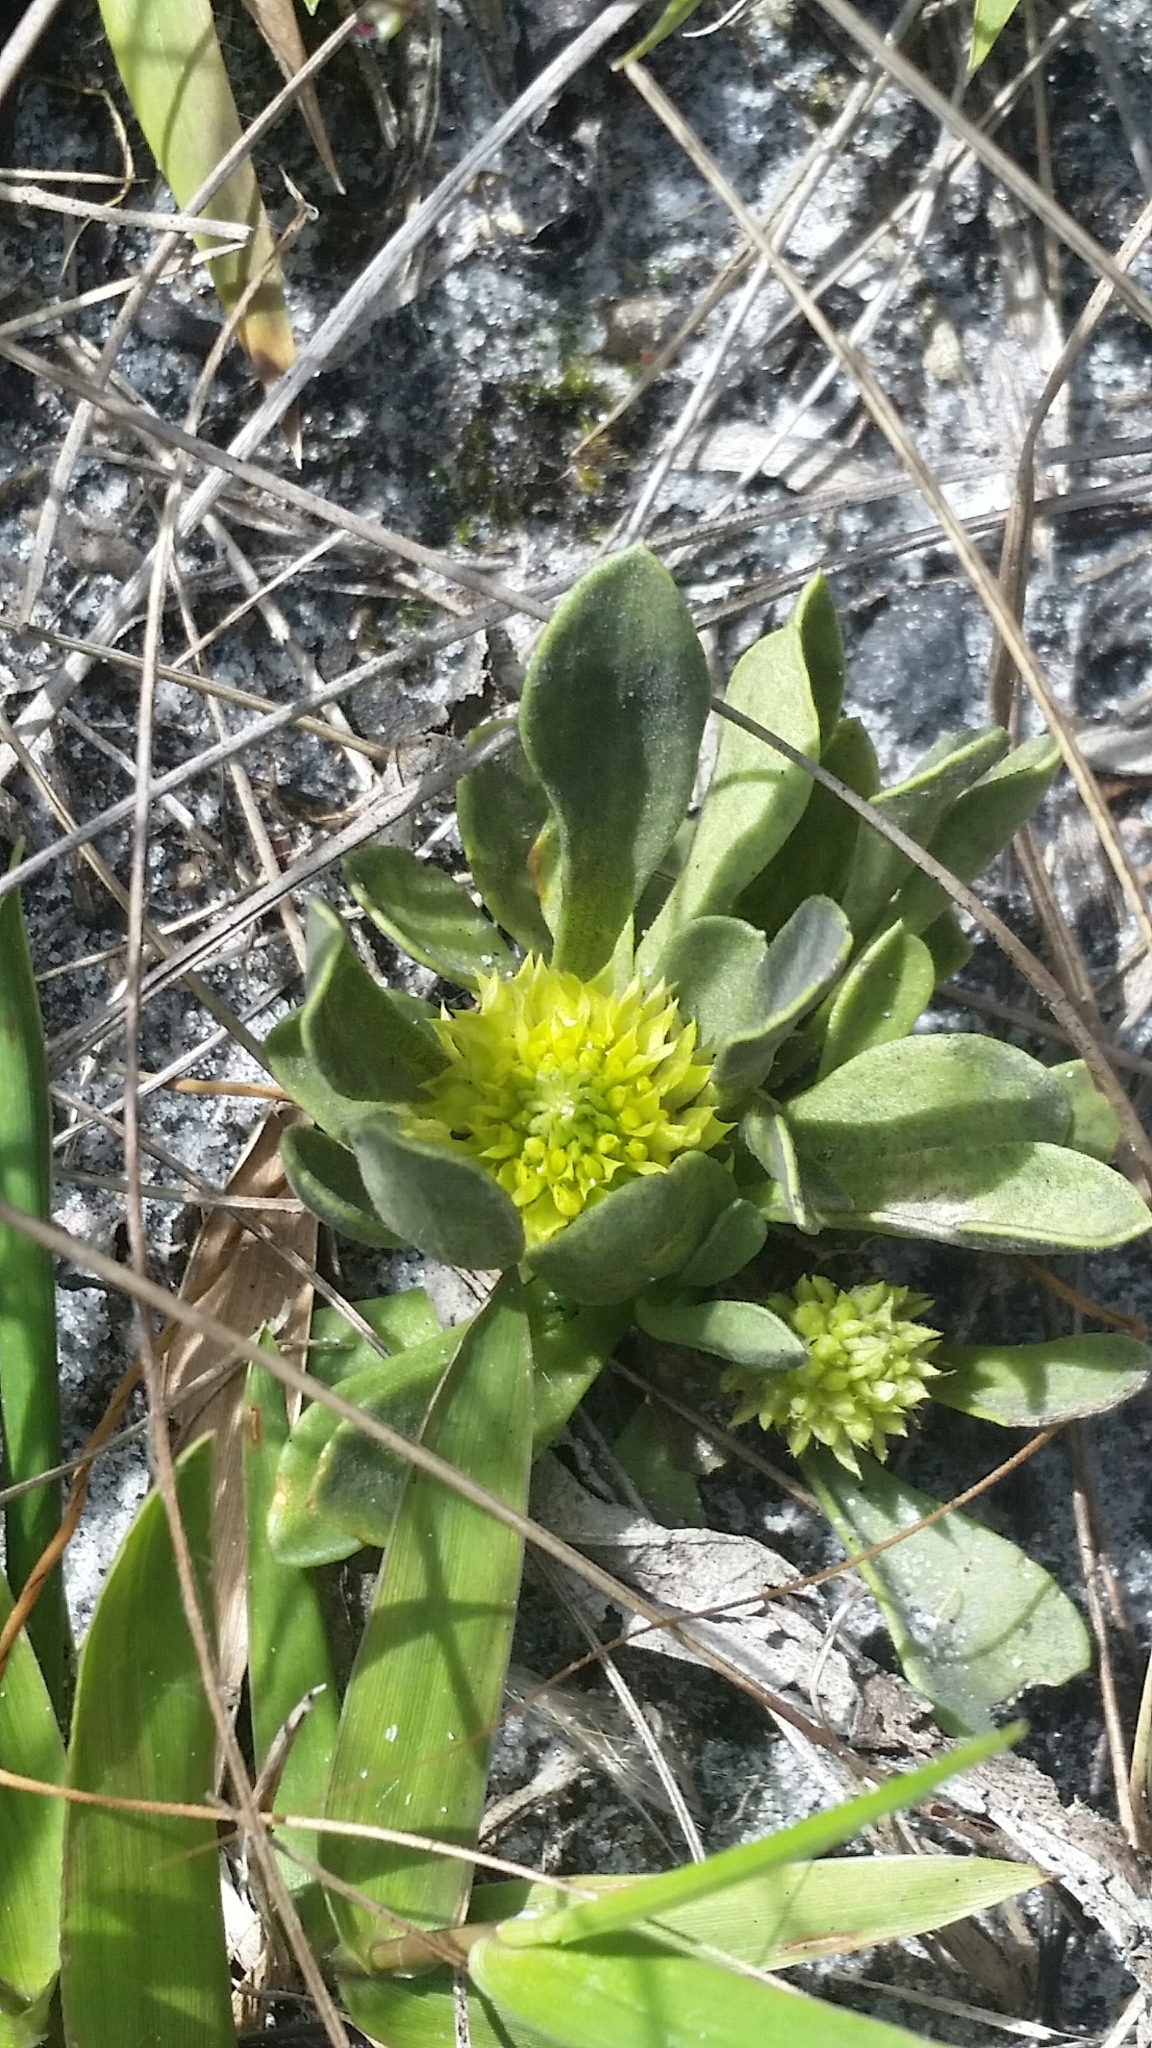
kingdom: Plantae
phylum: Tracheophyta
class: Magnoliopsida
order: Fabales
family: Polygalaceae
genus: Polygala
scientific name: Polygala nana
